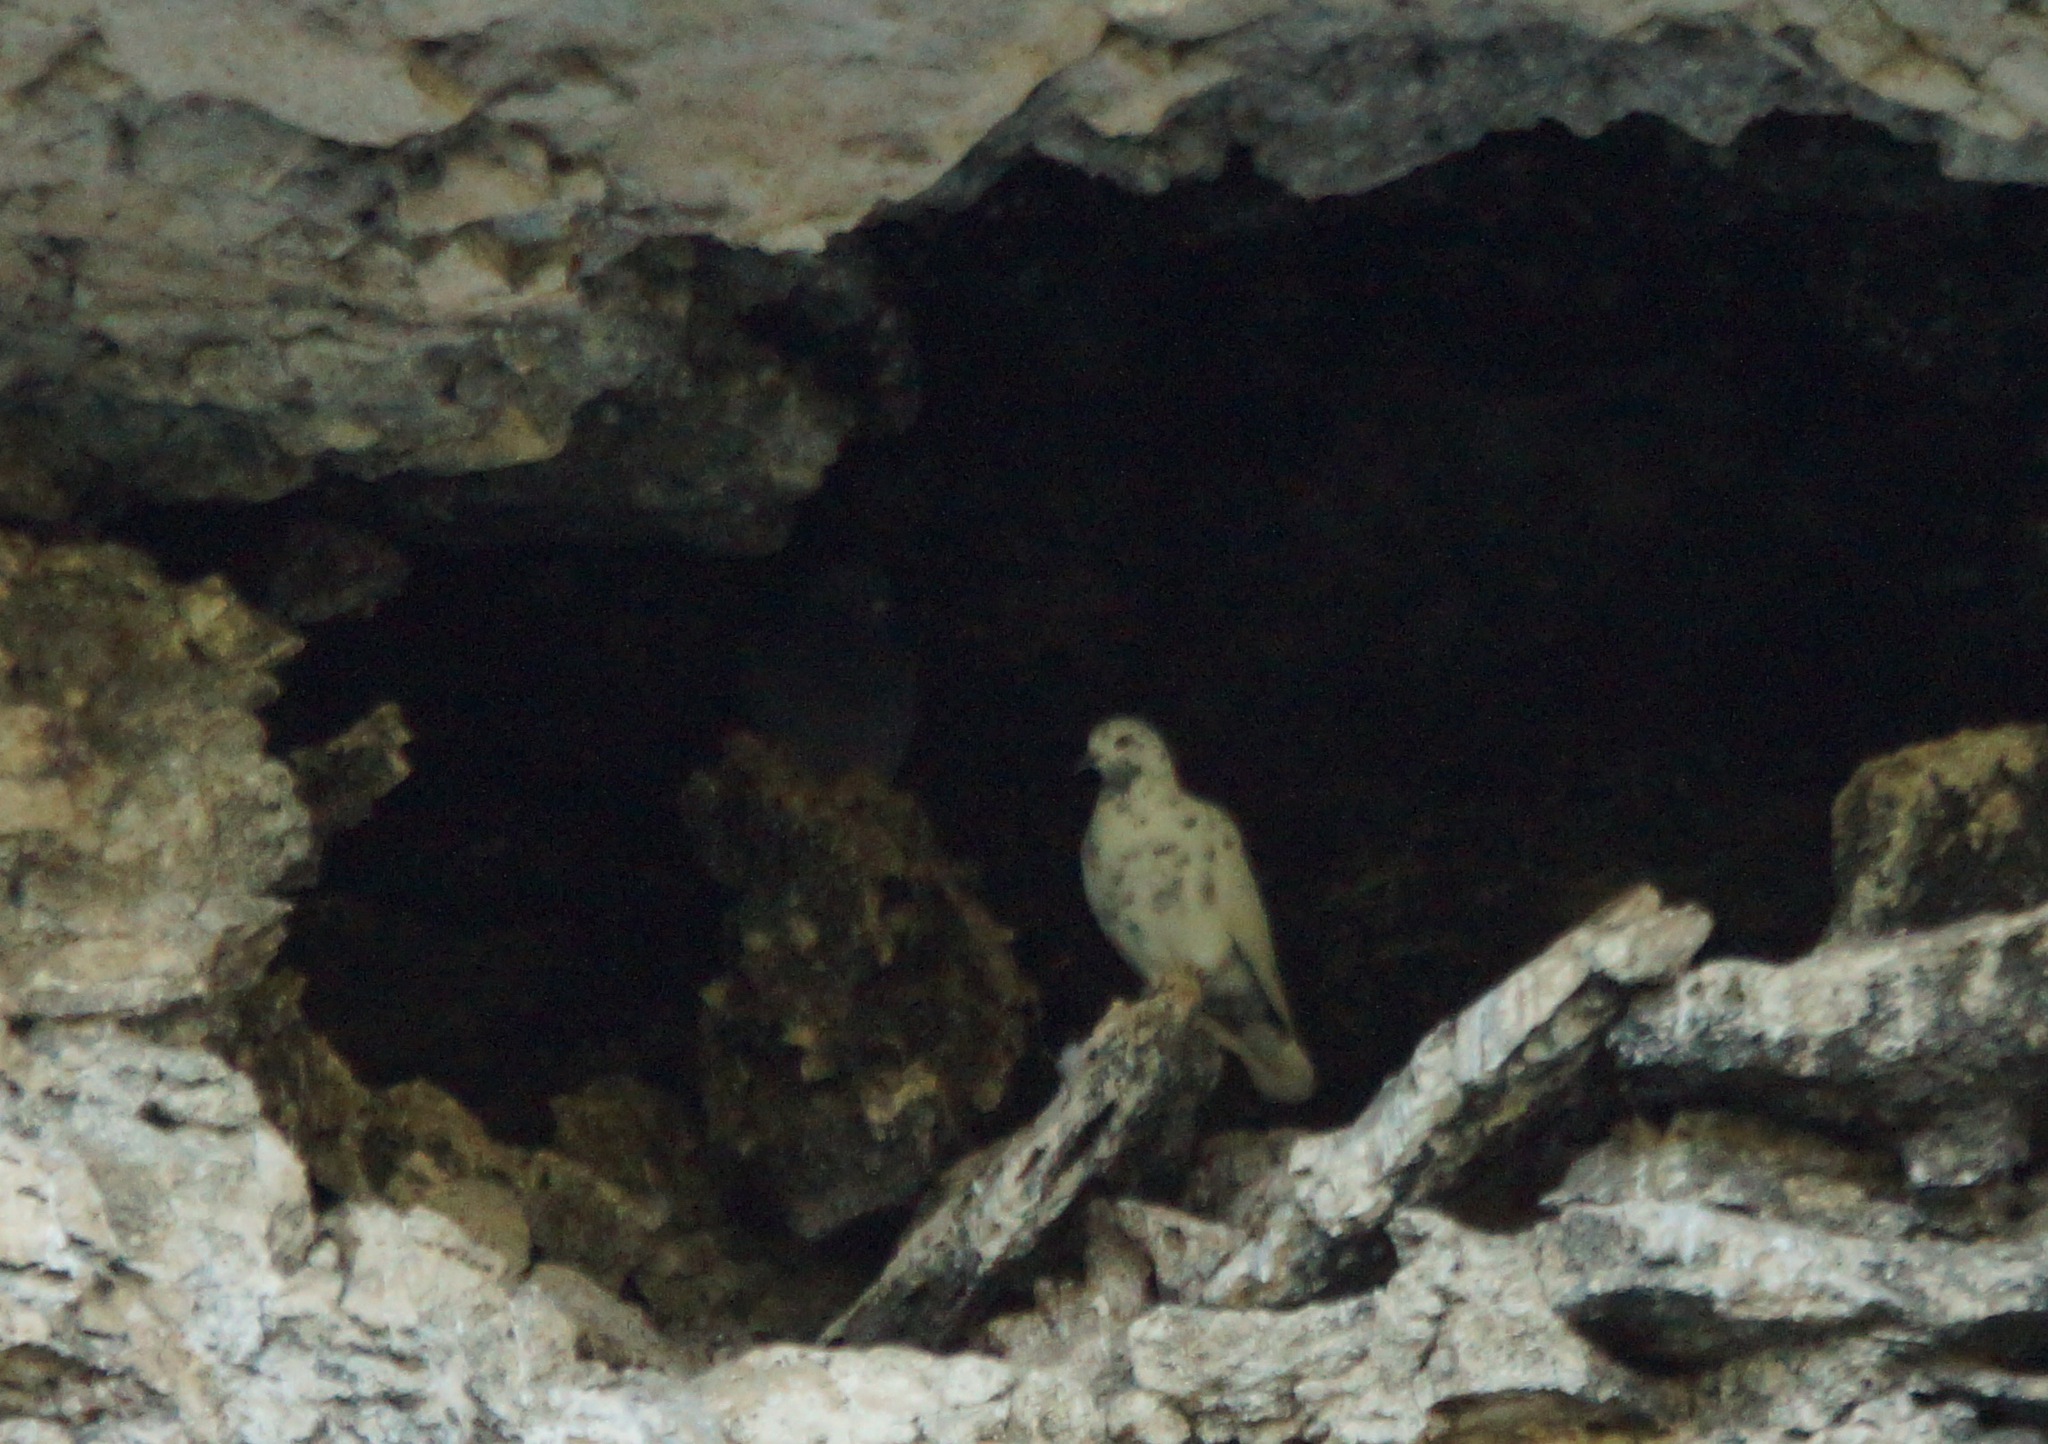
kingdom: Animalia
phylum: Chordata
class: Aves
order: Columbiformes
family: Columbidae
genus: Columba
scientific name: Columba livia
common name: Rock pigeon
